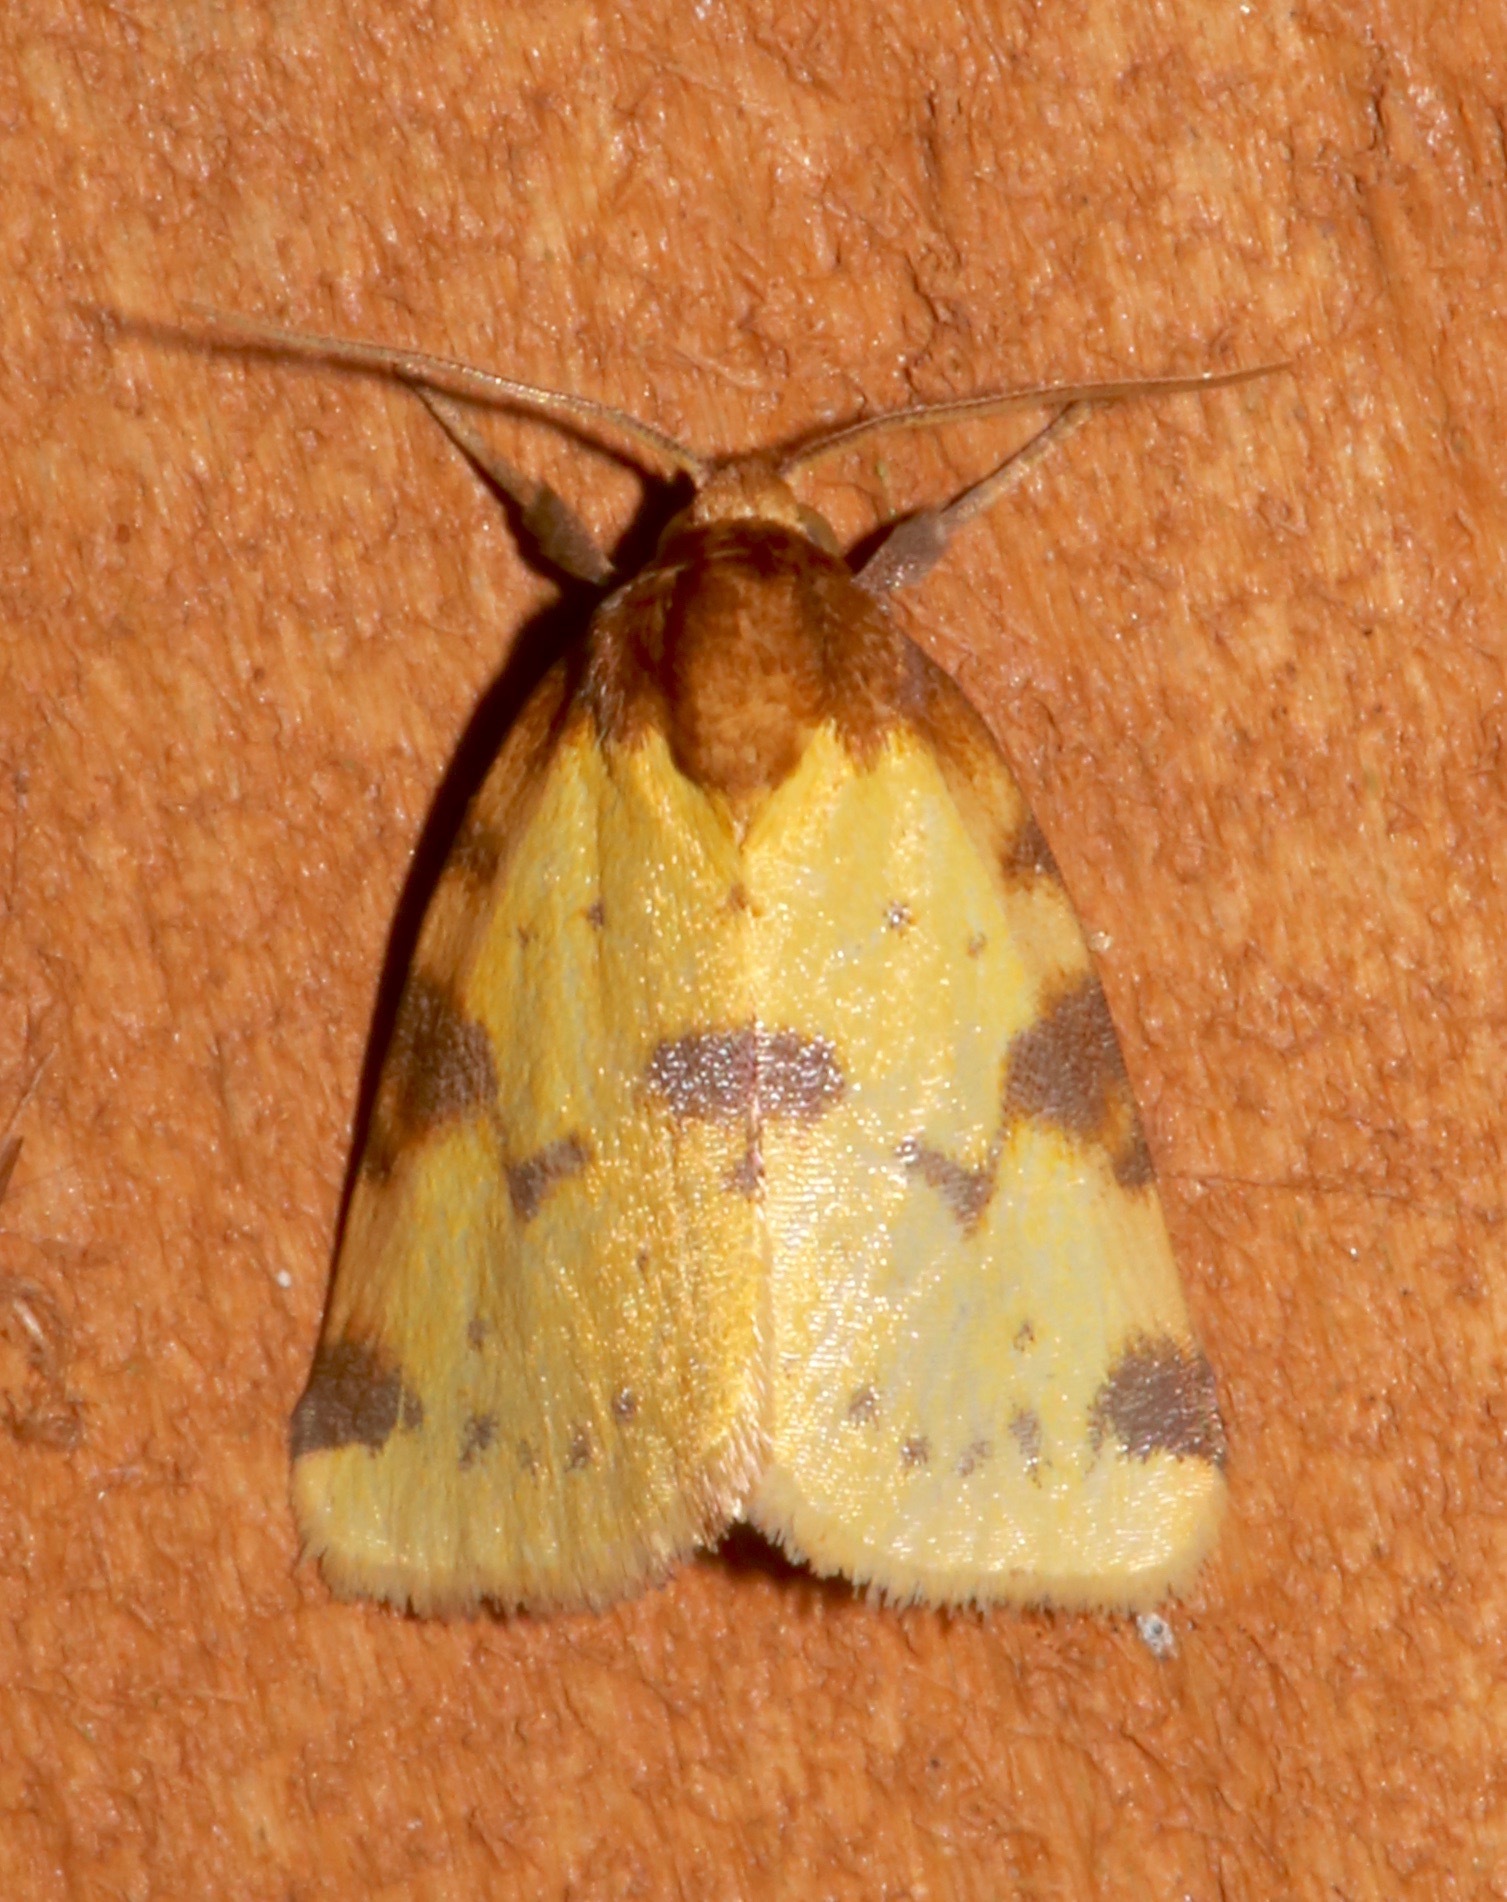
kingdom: Animalia
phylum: Arthropoda
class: Insecta
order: Lepidoptera
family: Noctuidae
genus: Azenia
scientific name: Azenia obtusa
